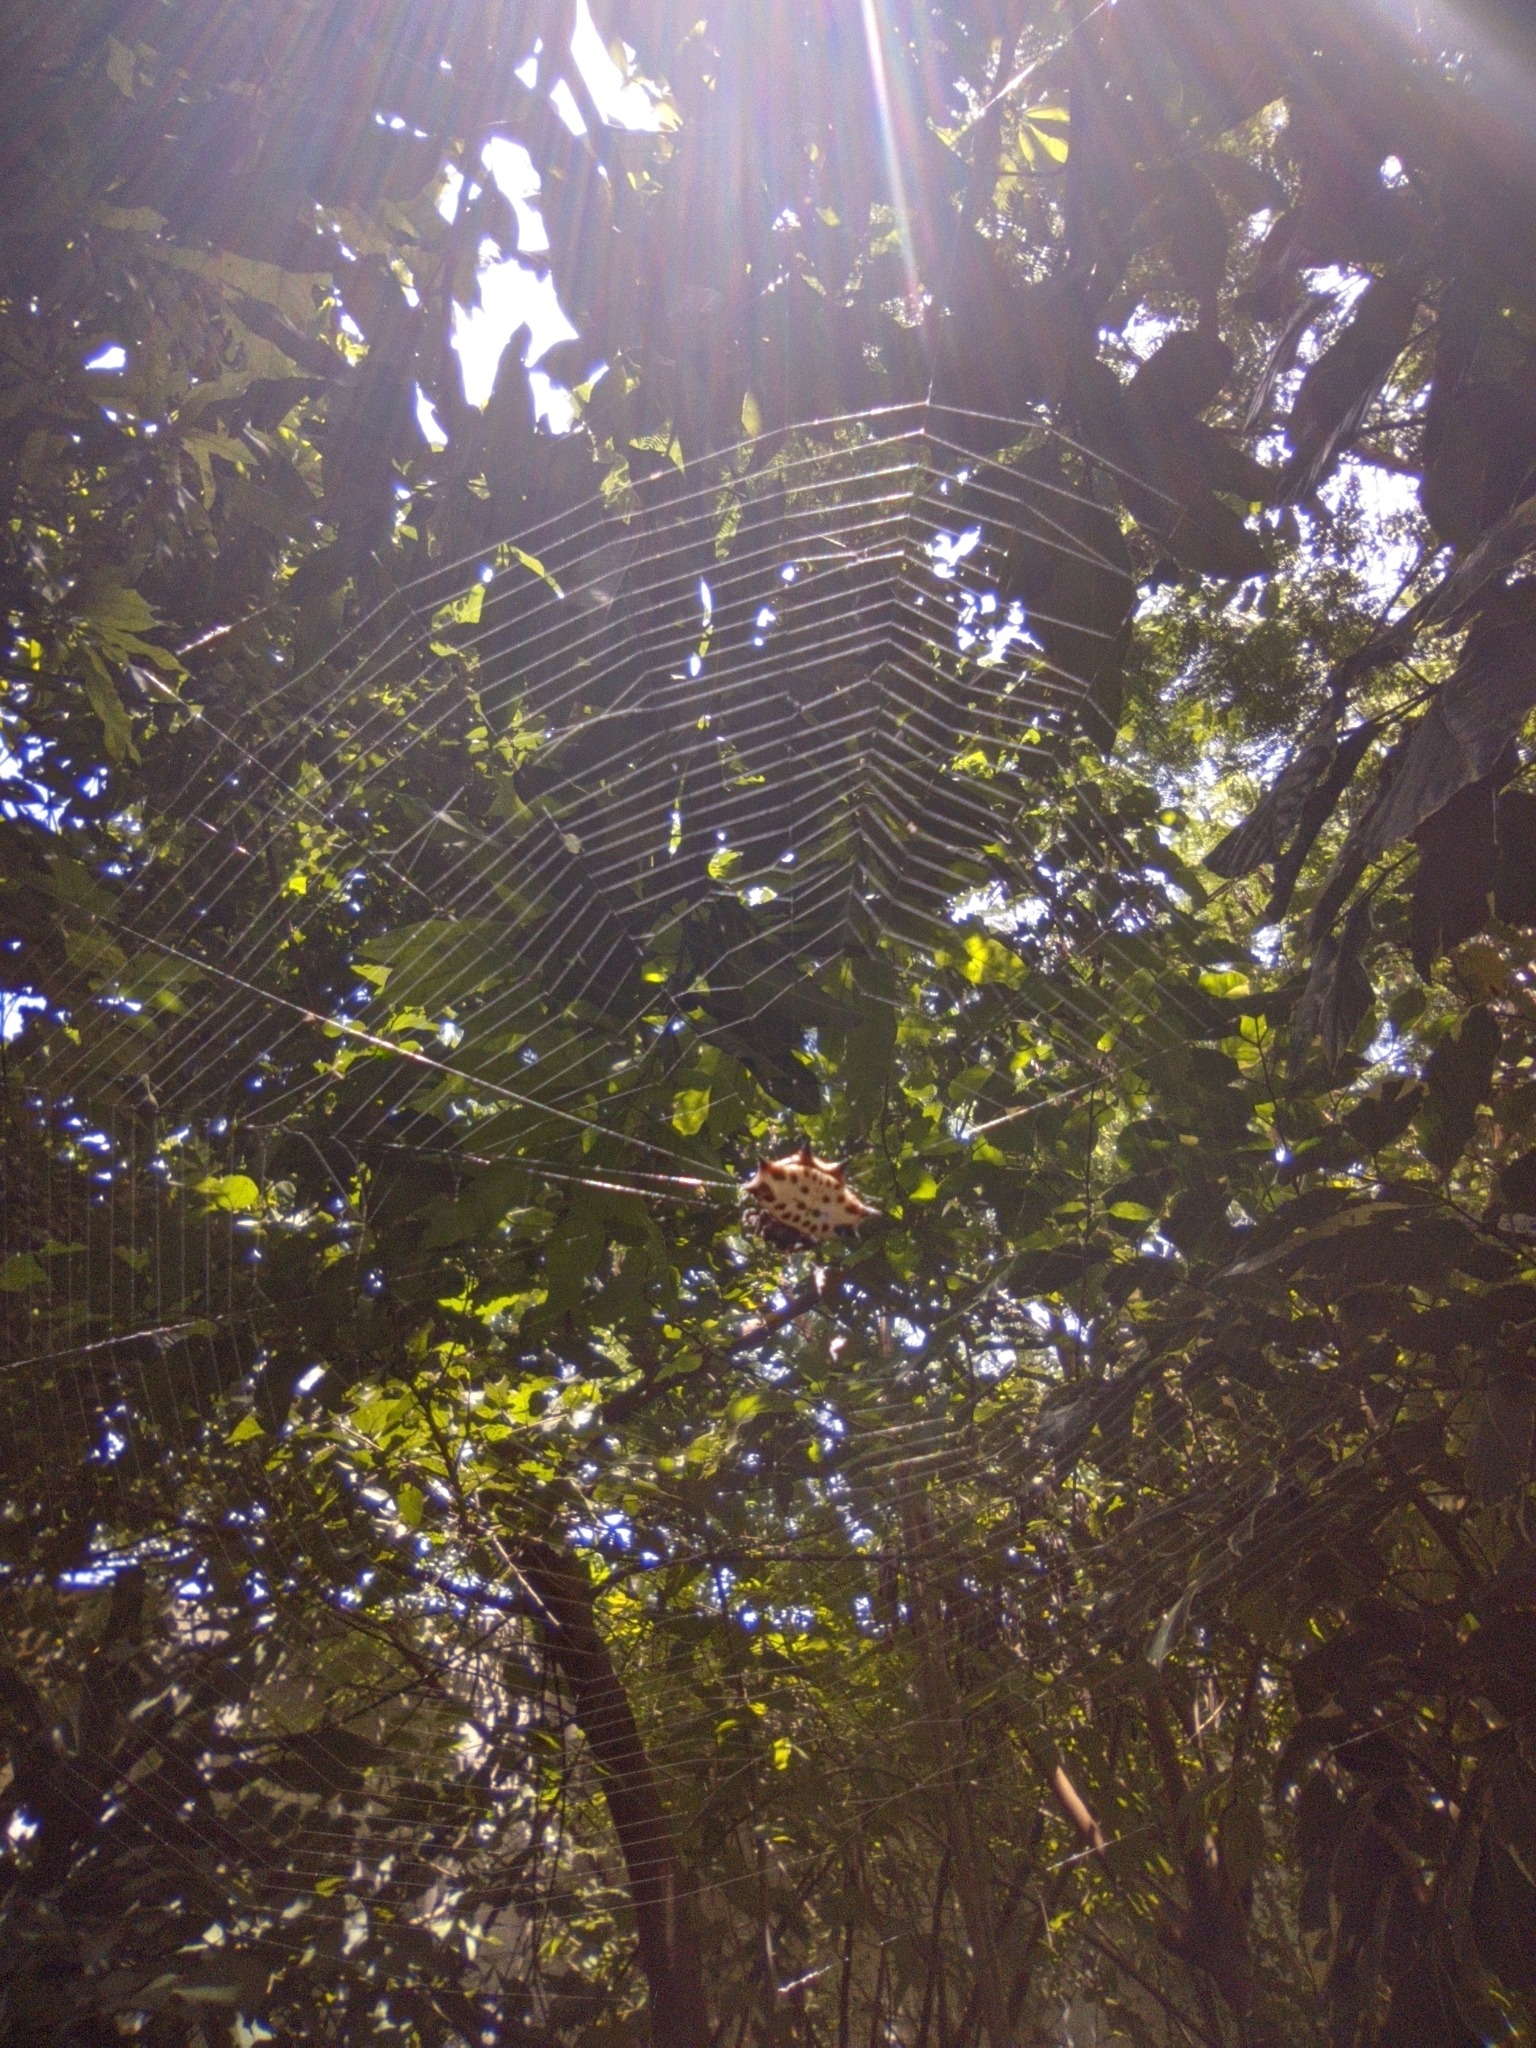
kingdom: Animalia
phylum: Arthropoda
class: Arachnida
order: Araneae
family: Araneidae
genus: Gasteracantha
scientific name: Gasteracantha cancriformis
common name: Orb weavers
